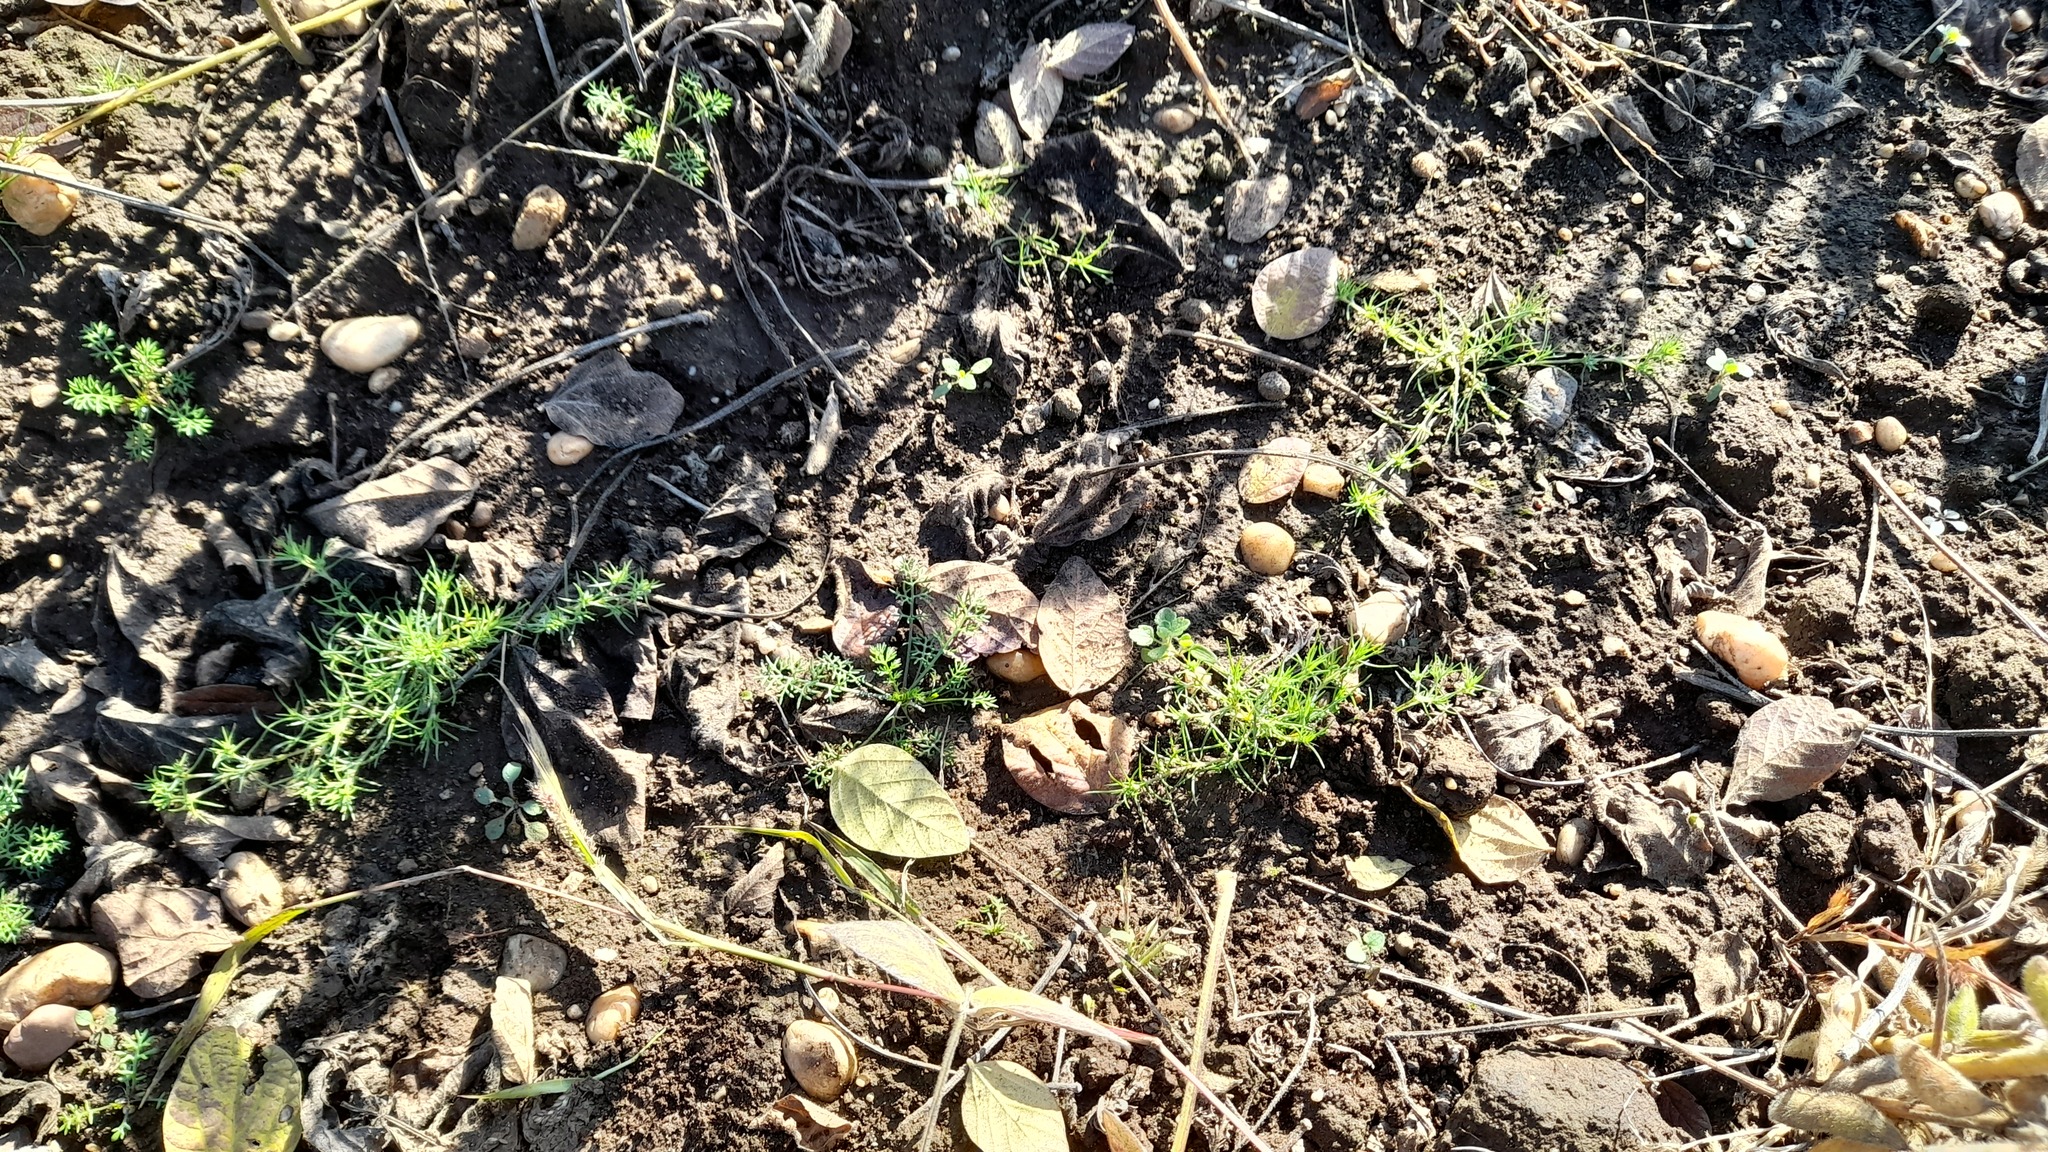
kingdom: Plantae
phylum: Tracheophyta
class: Magnoliopsida
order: Caryophyllales
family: Caryophyllaceae
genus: Scleranthus
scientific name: Scleranthus annuus
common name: Annual knawel
